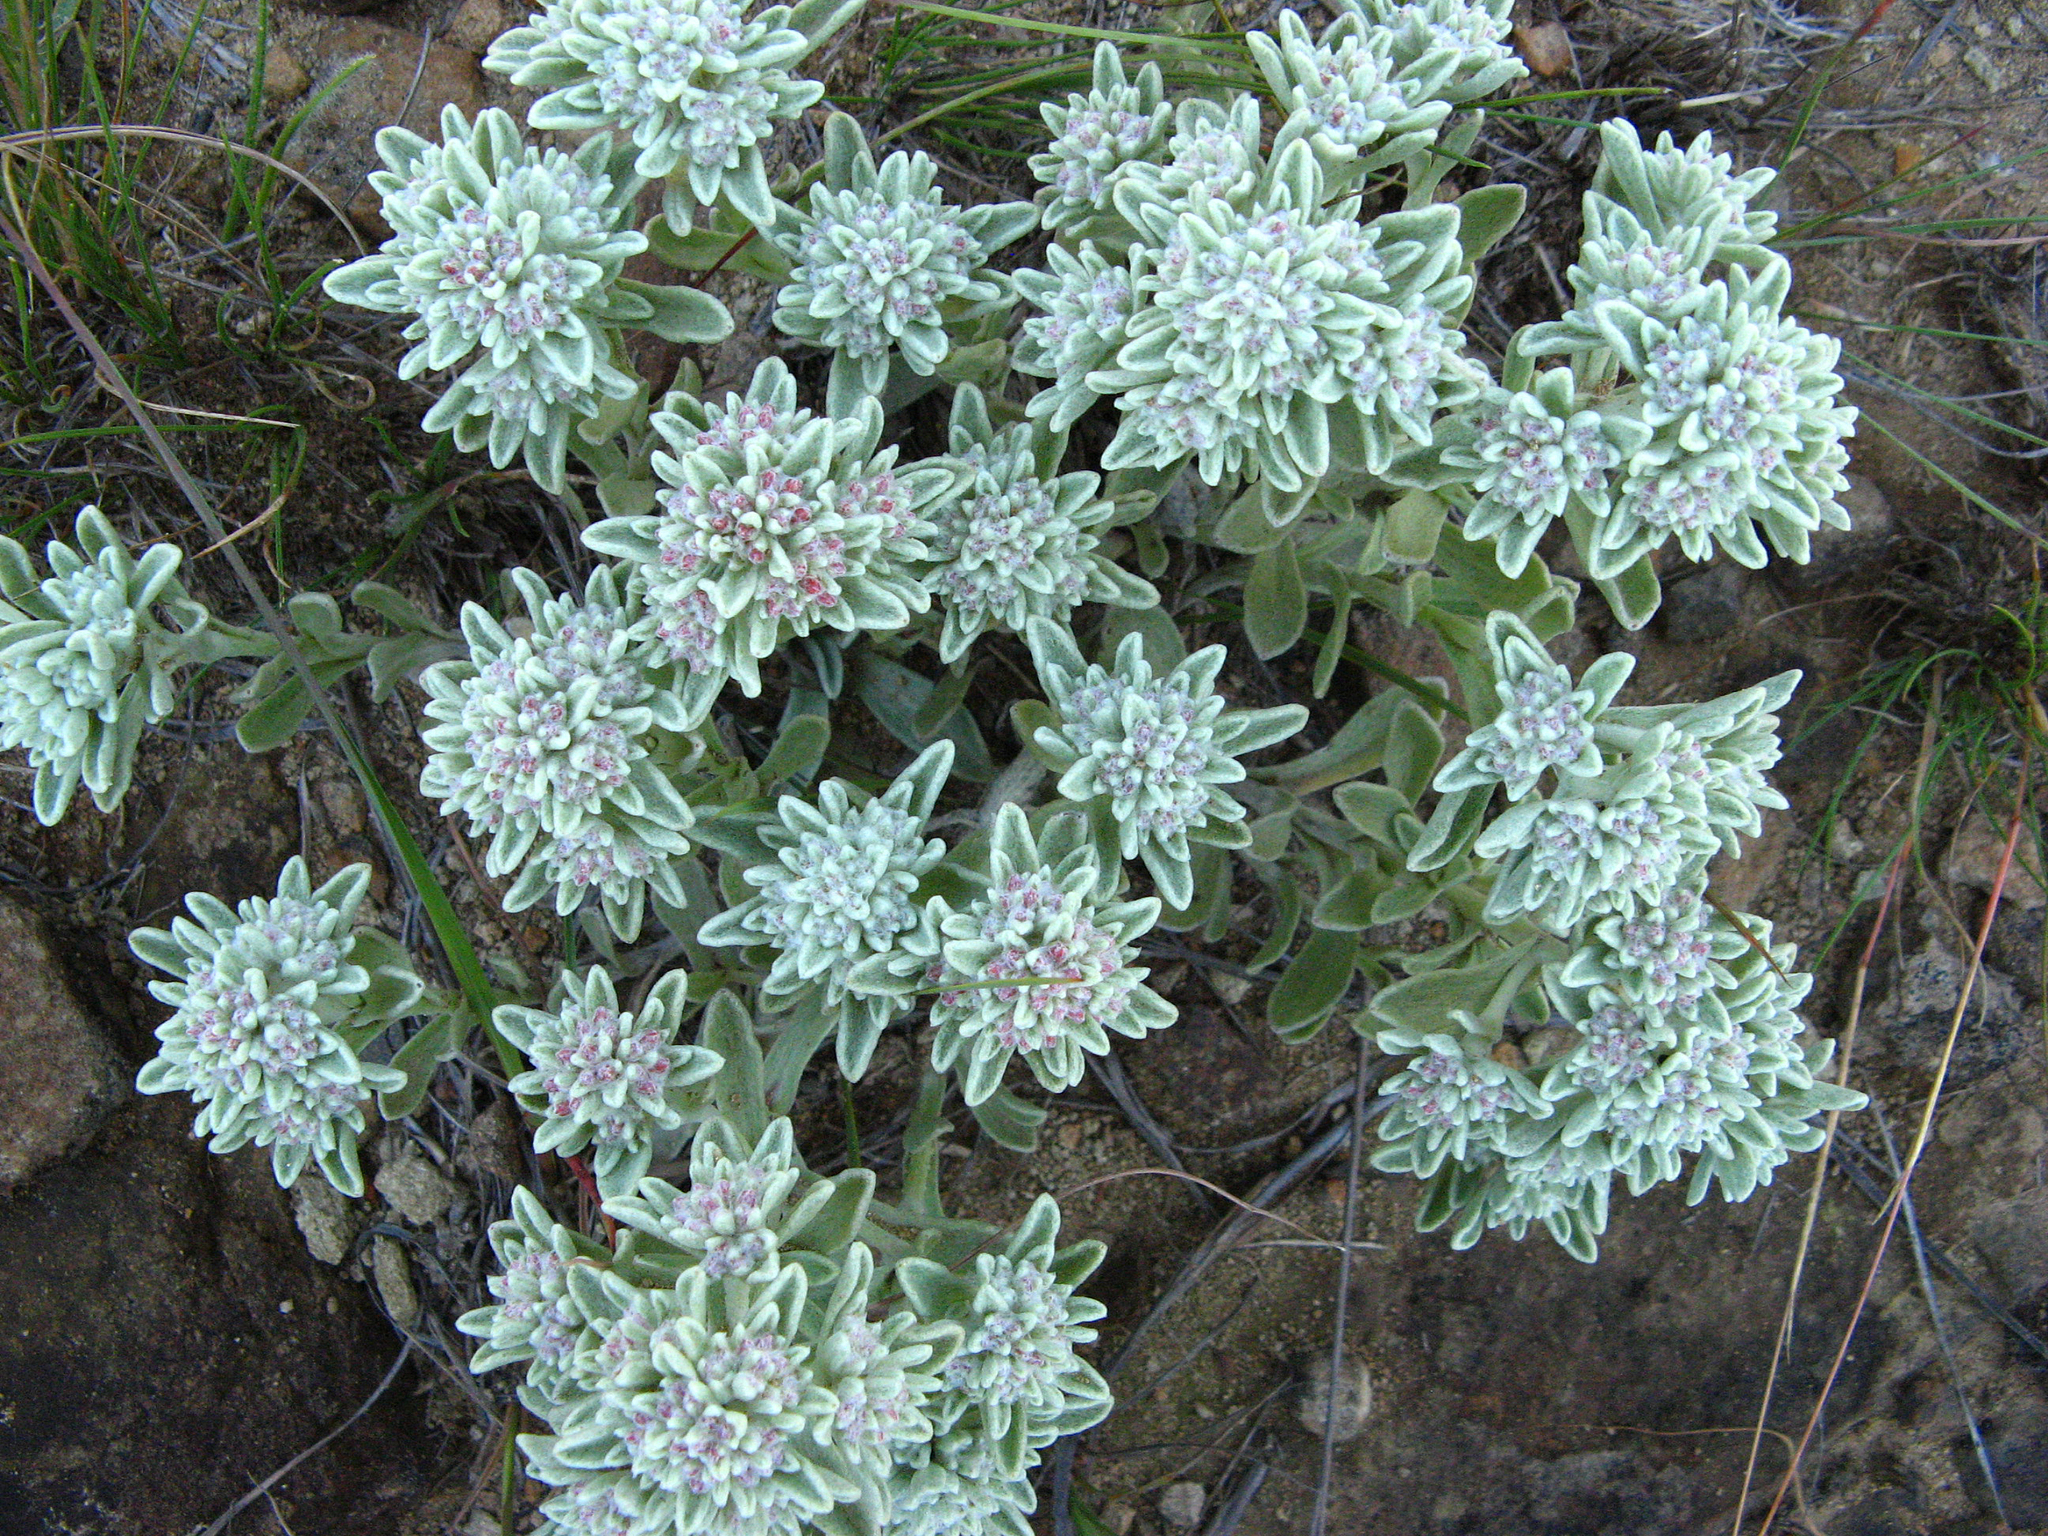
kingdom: Plantae
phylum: Tracheophyta
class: Magnoliopsida
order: Asterales
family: Asteraceae
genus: Helichrysum
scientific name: Helichrysum spiralepis
